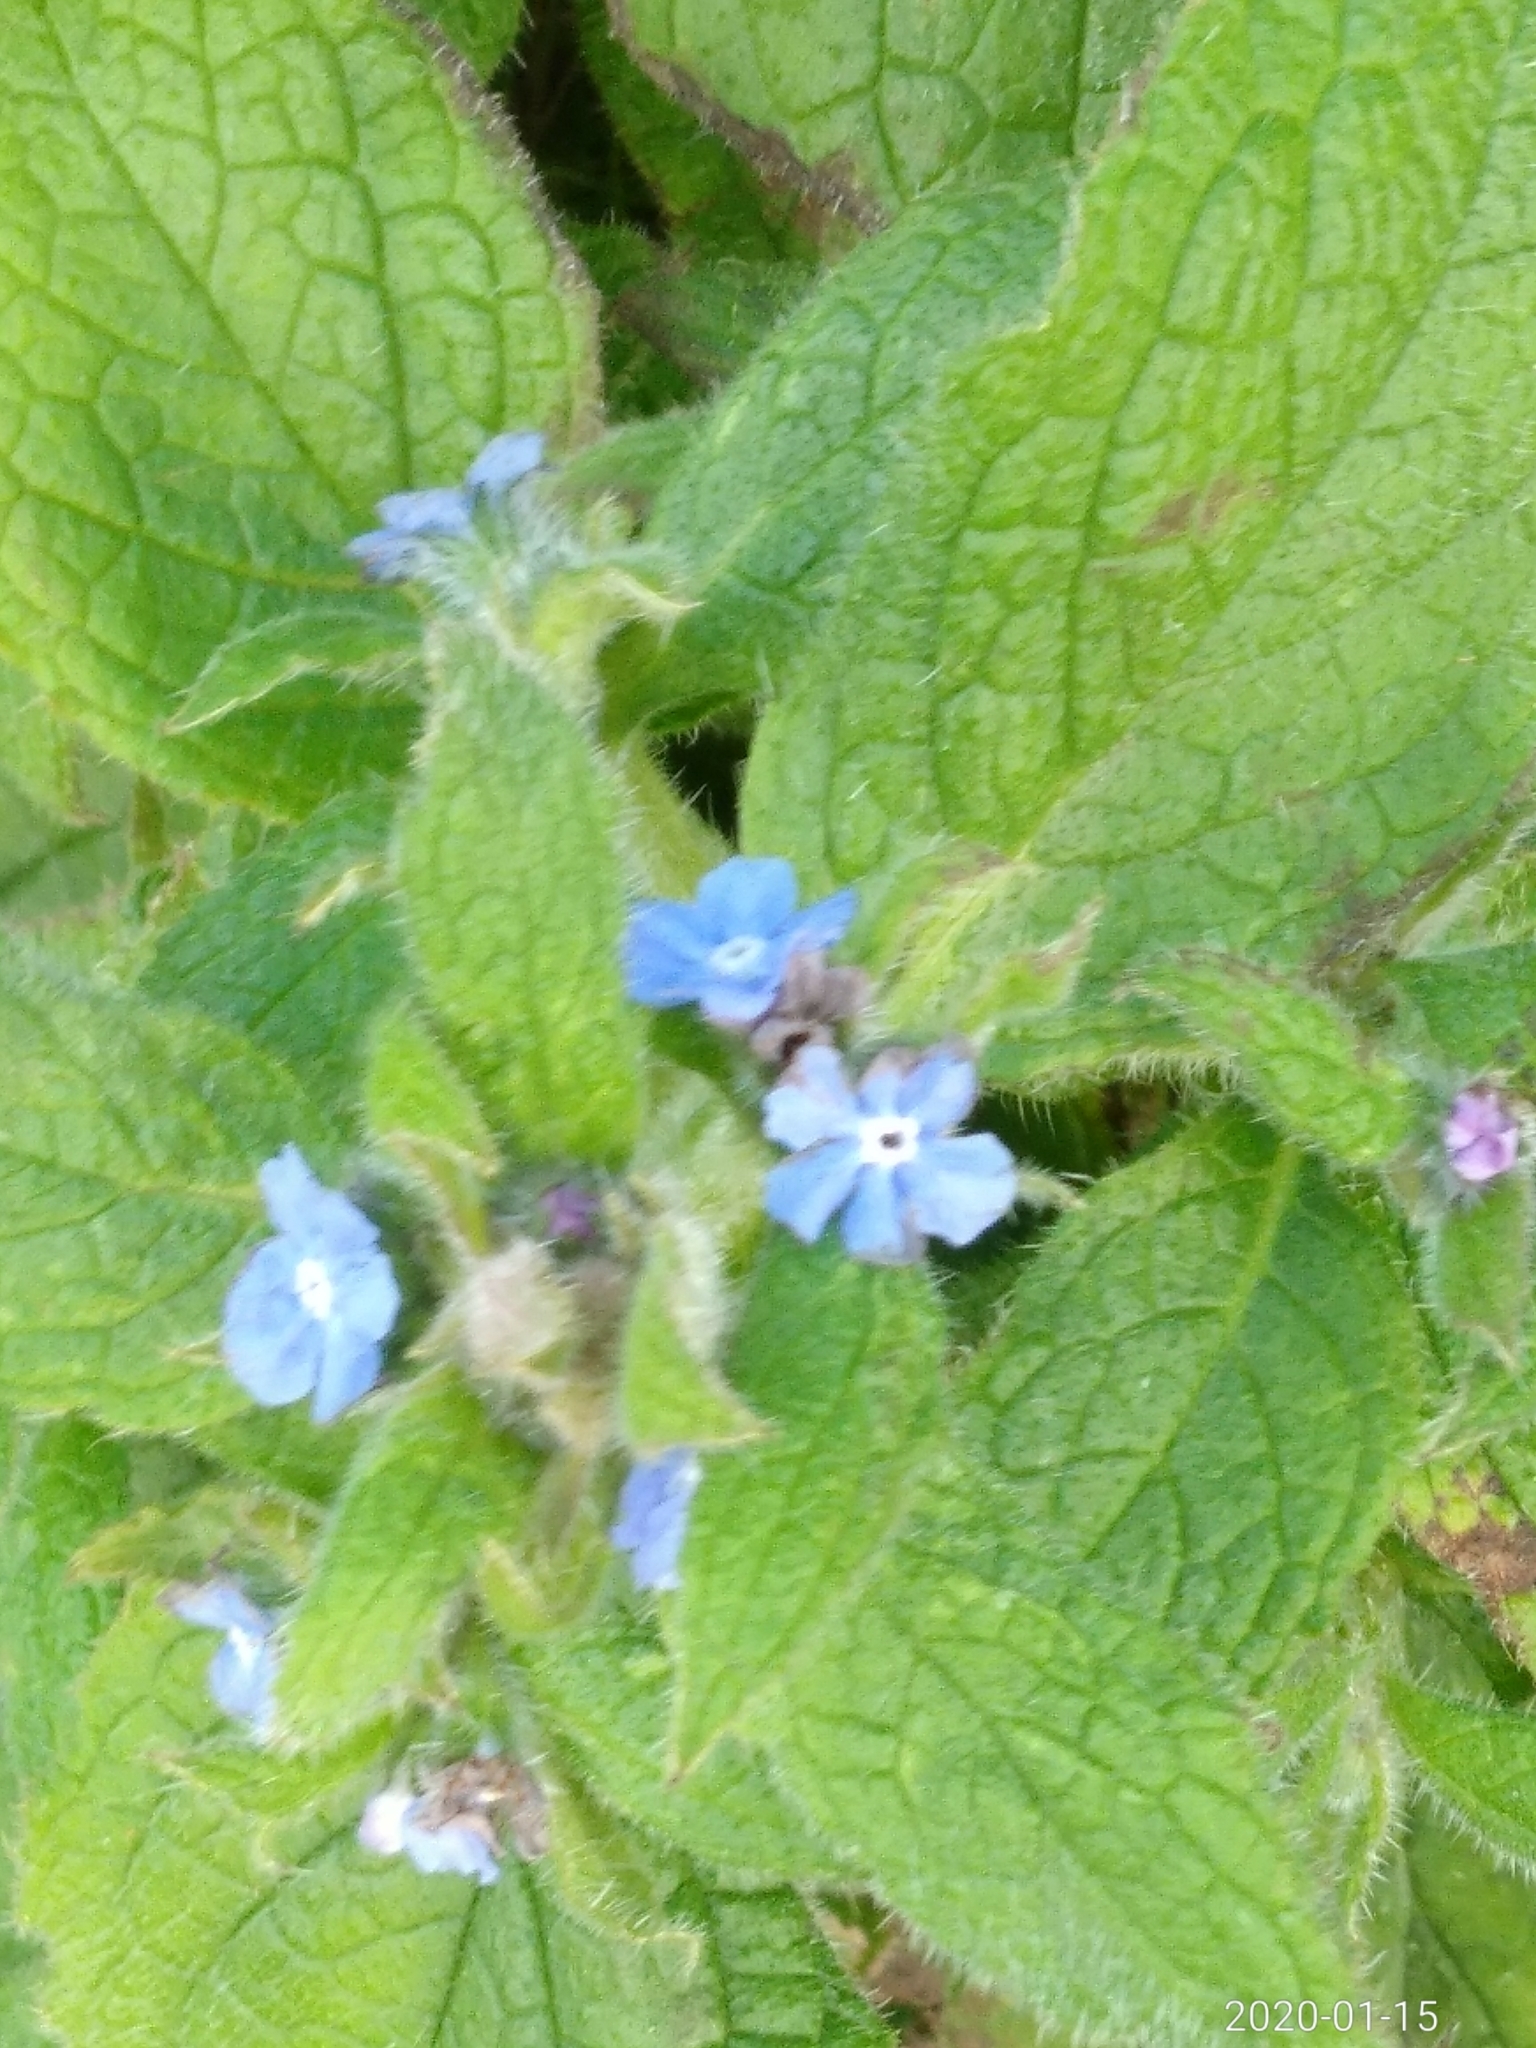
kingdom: Plantae
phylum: Tracheophyta
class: Magnoliopsida
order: Boraginales
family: Boraginaceae
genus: Pentaglottis
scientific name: Pentaglottis sempervirens
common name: Green alkanet
